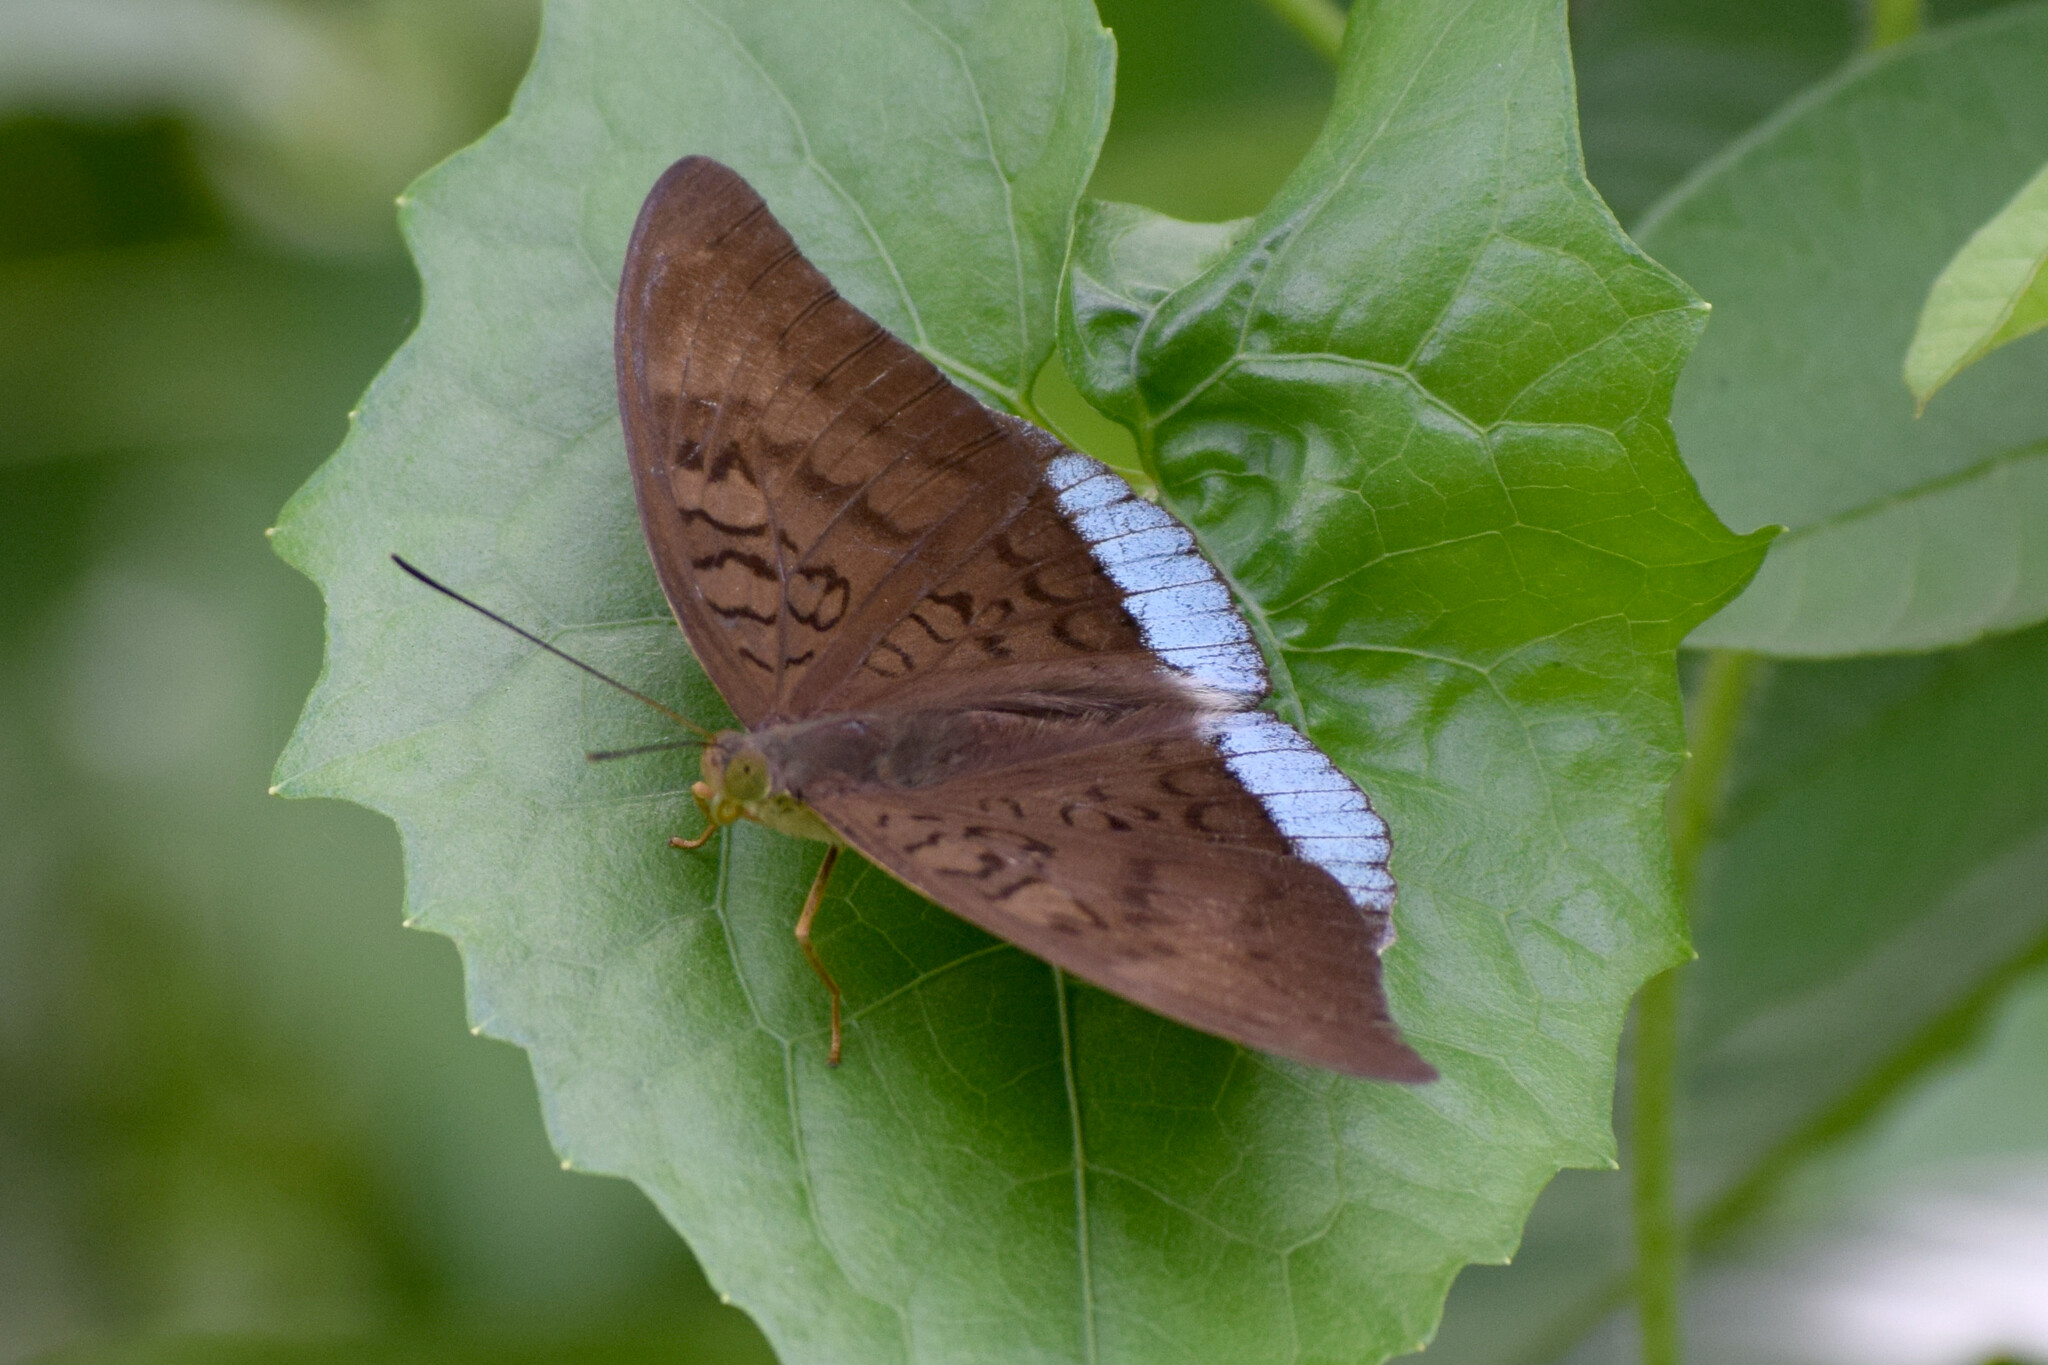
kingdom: Animalia
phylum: Arthropoda
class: Insecta
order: Lepidoptera
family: Nymphalidae
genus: Tanaecia
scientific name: Tanaecia julii
